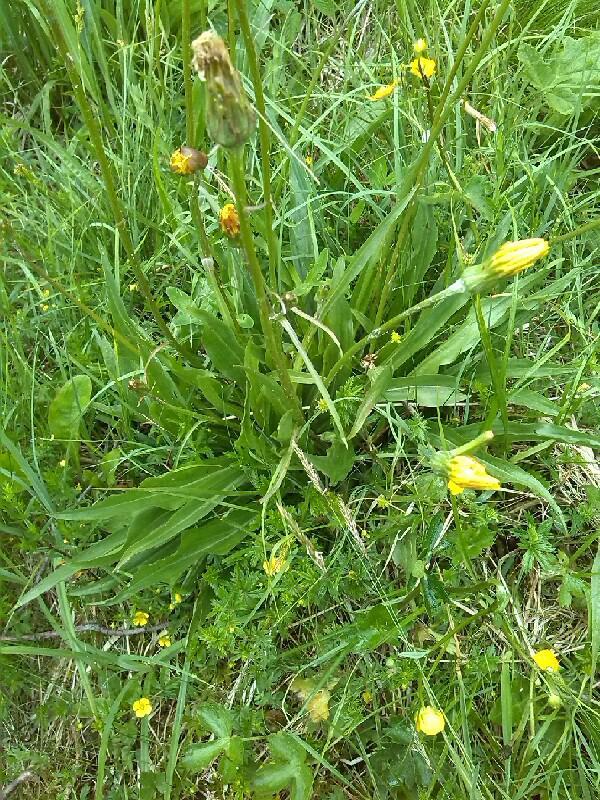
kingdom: Plantae
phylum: Tracheophyta
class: Magnoliopsida
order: Asterales
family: Asteraceae
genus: Scorzonera
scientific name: Scorzonera humilis
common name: Viper's-grass
